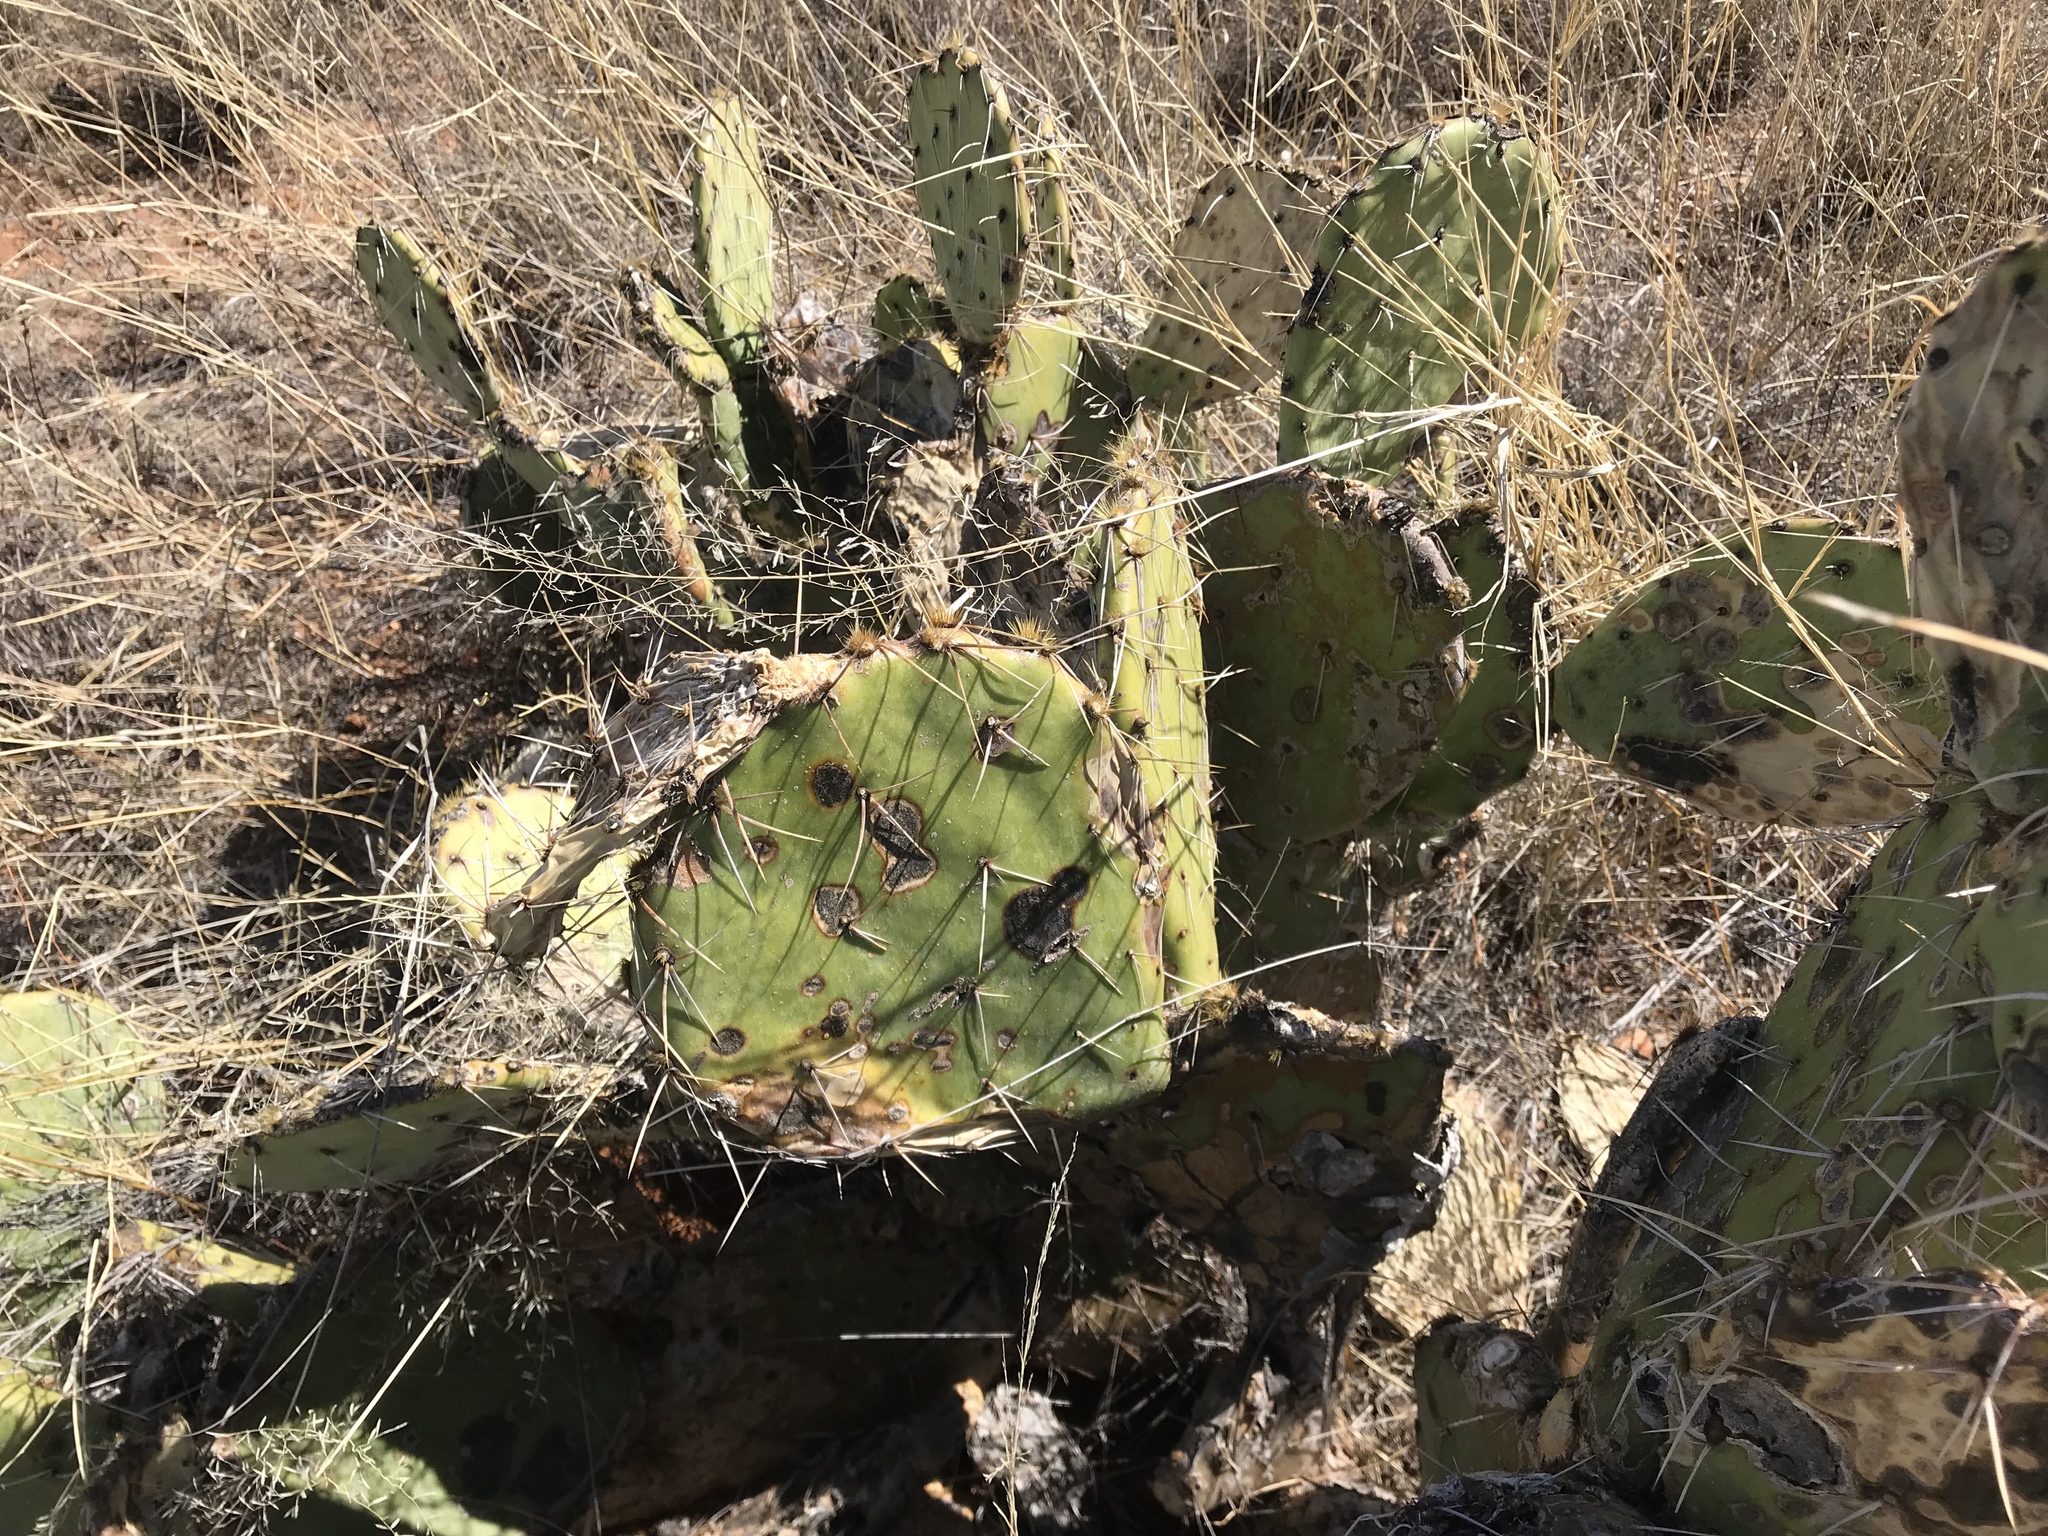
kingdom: Plantae
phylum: Tracheophyta
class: Magnoliopsida
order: Caryophyllales
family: Cactaceae
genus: Opuntia
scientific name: Opuntia phaeacantha
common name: New mexico prickly-pear
